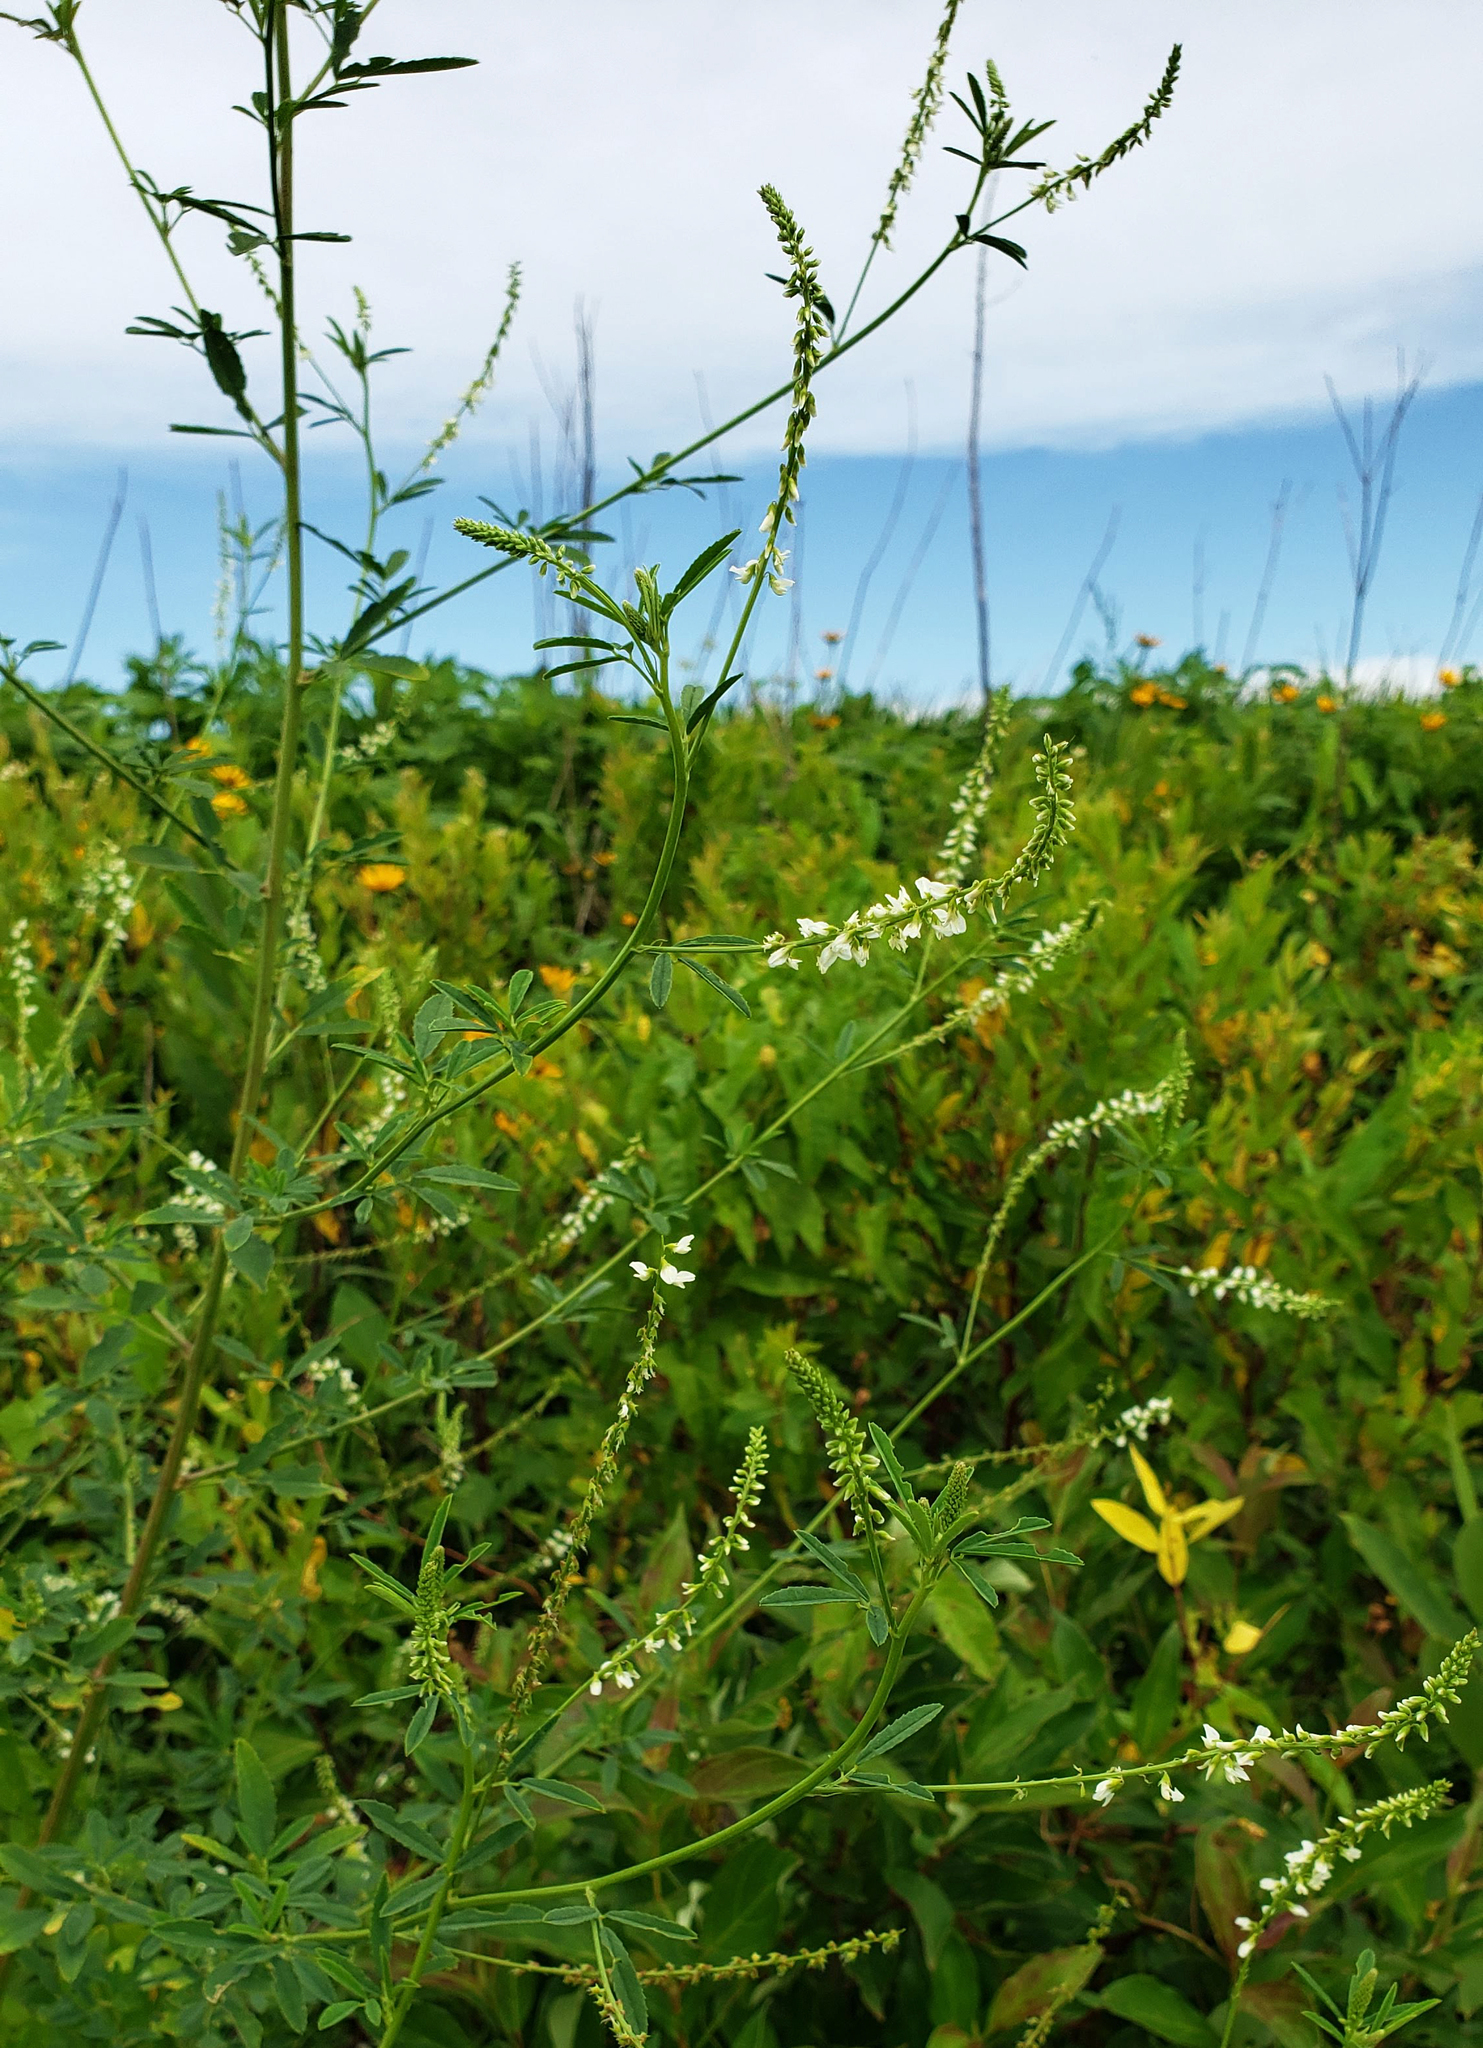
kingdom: Plantae
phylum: Tracheophyta
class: Magnoliopsida
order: Fabales
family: Fabaceae
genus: Melilotus
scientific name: Melilotus albus
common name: White melilot
